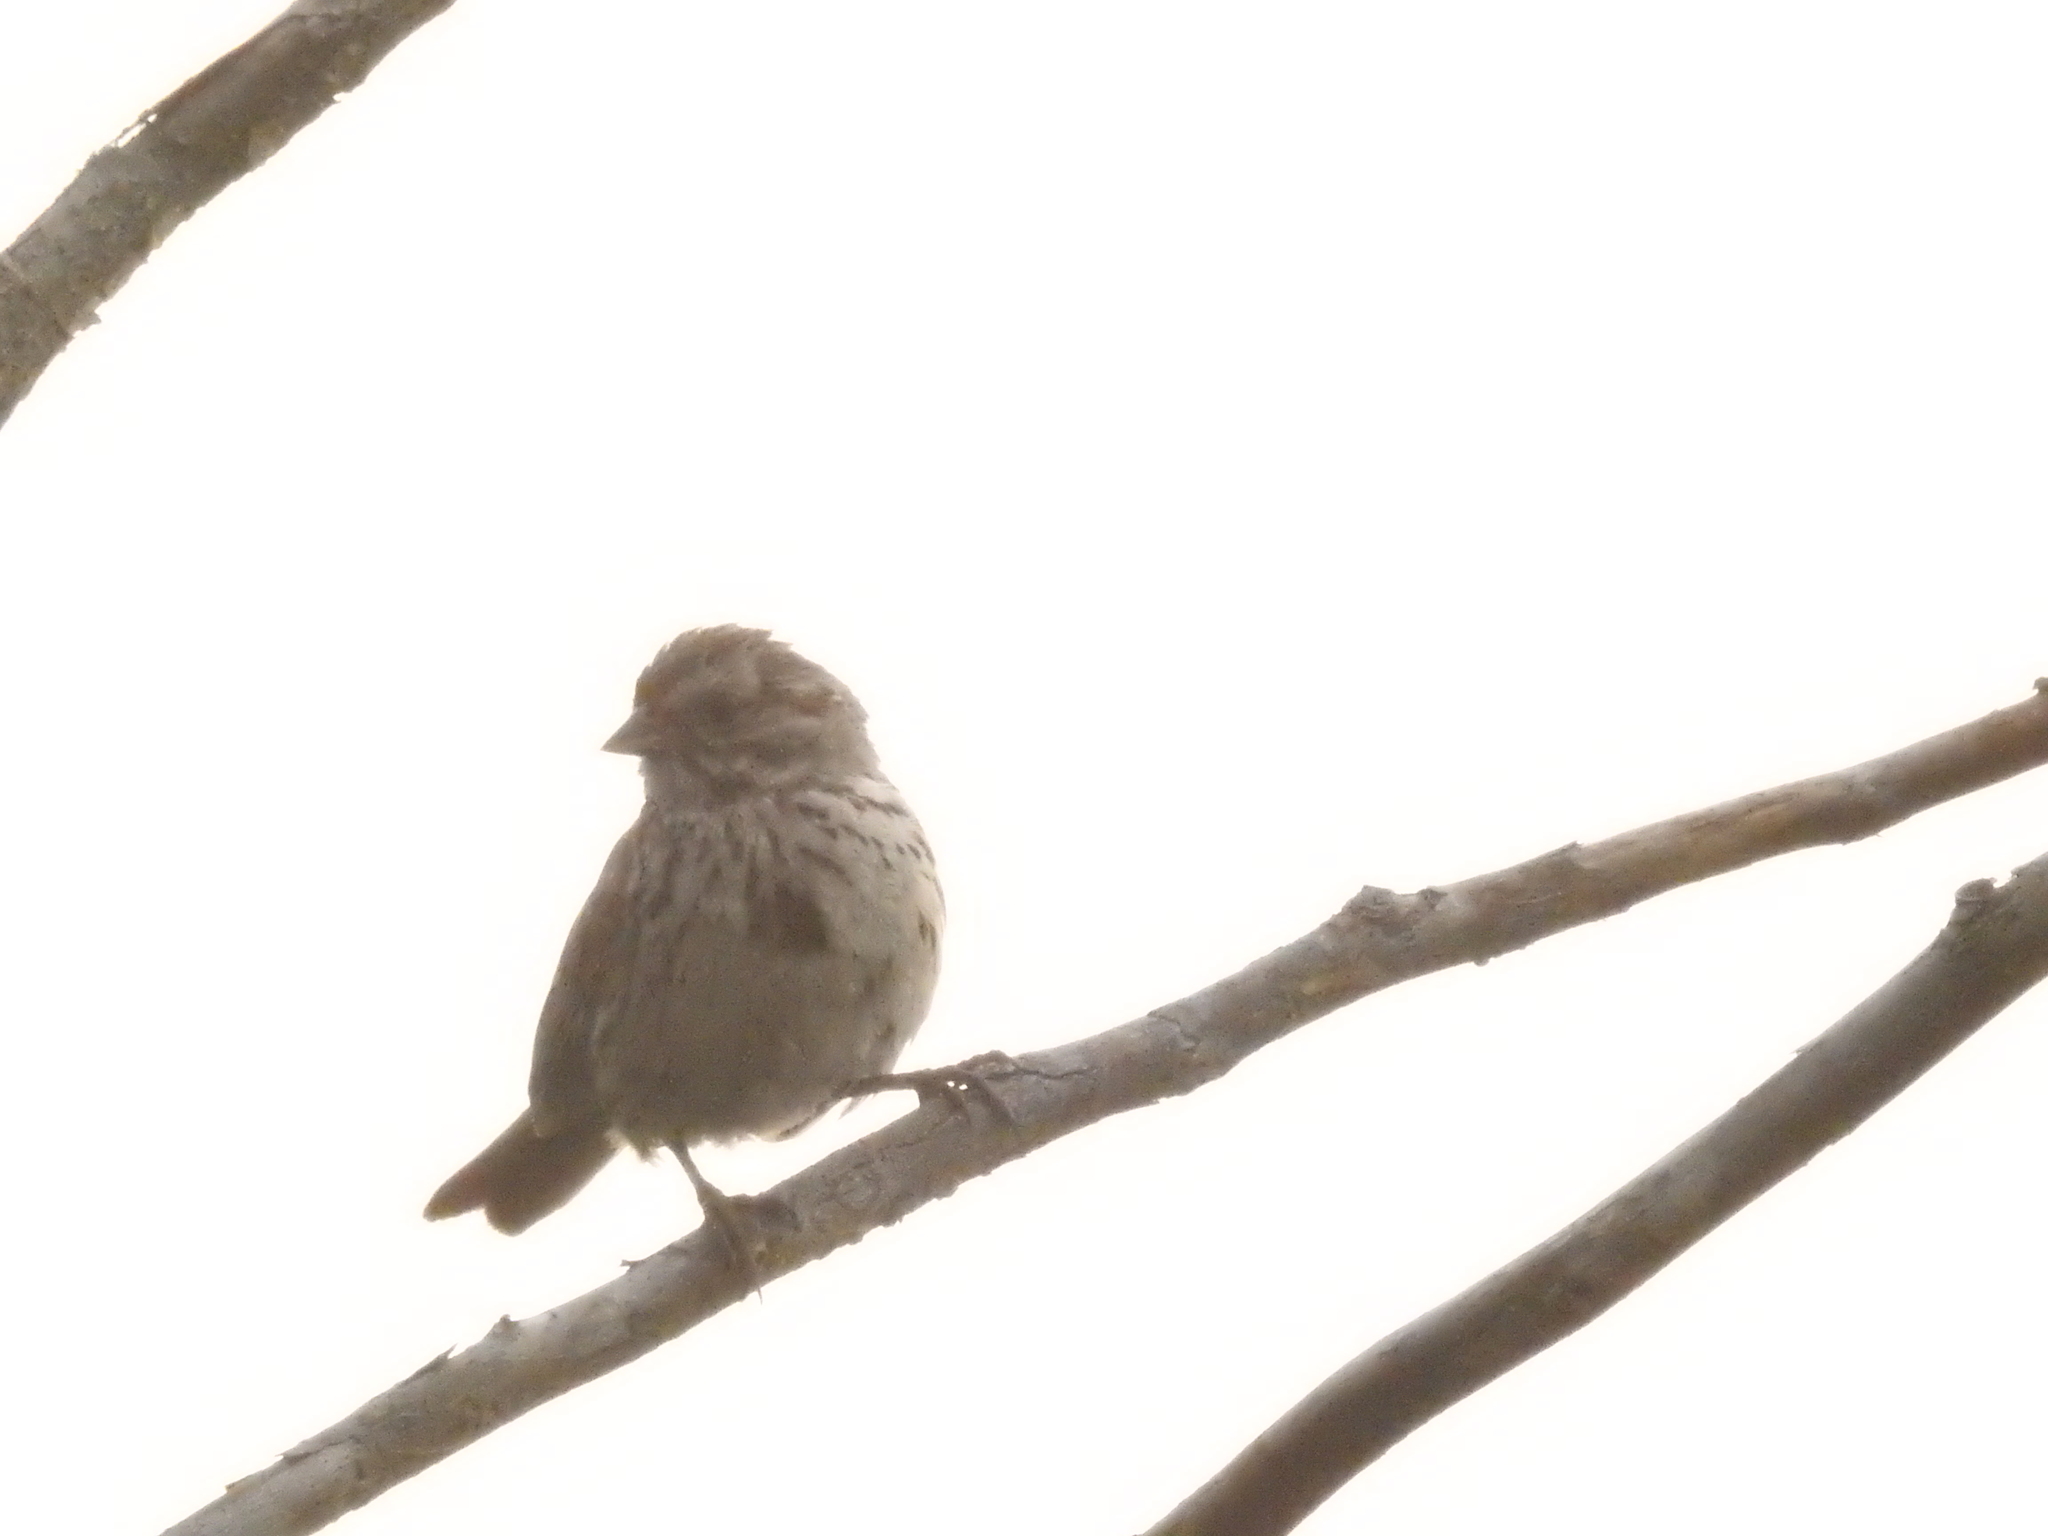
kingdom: Animalia
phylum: Chordata
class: Aves
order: Passeriformes
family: Passerellidae
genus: Melospiza
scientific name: Melospiza melodia
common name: Song sparrow
